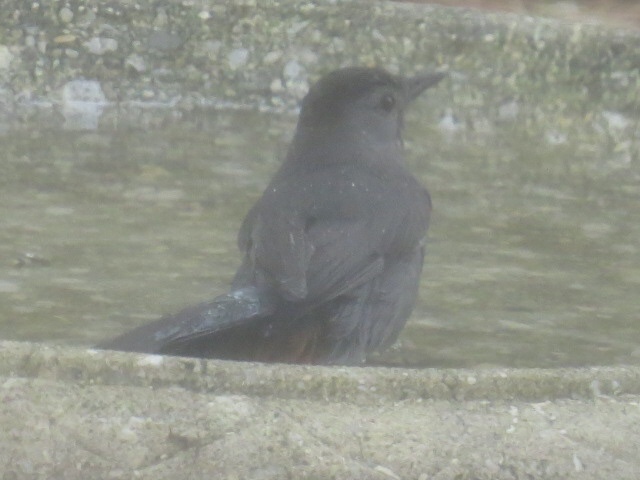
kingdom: Animalia
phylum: Chordata
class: Aves
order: Passeriformes
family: Mimidae
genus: Dumetella
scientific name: Dumetella carolinensis
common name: Gray catbird
